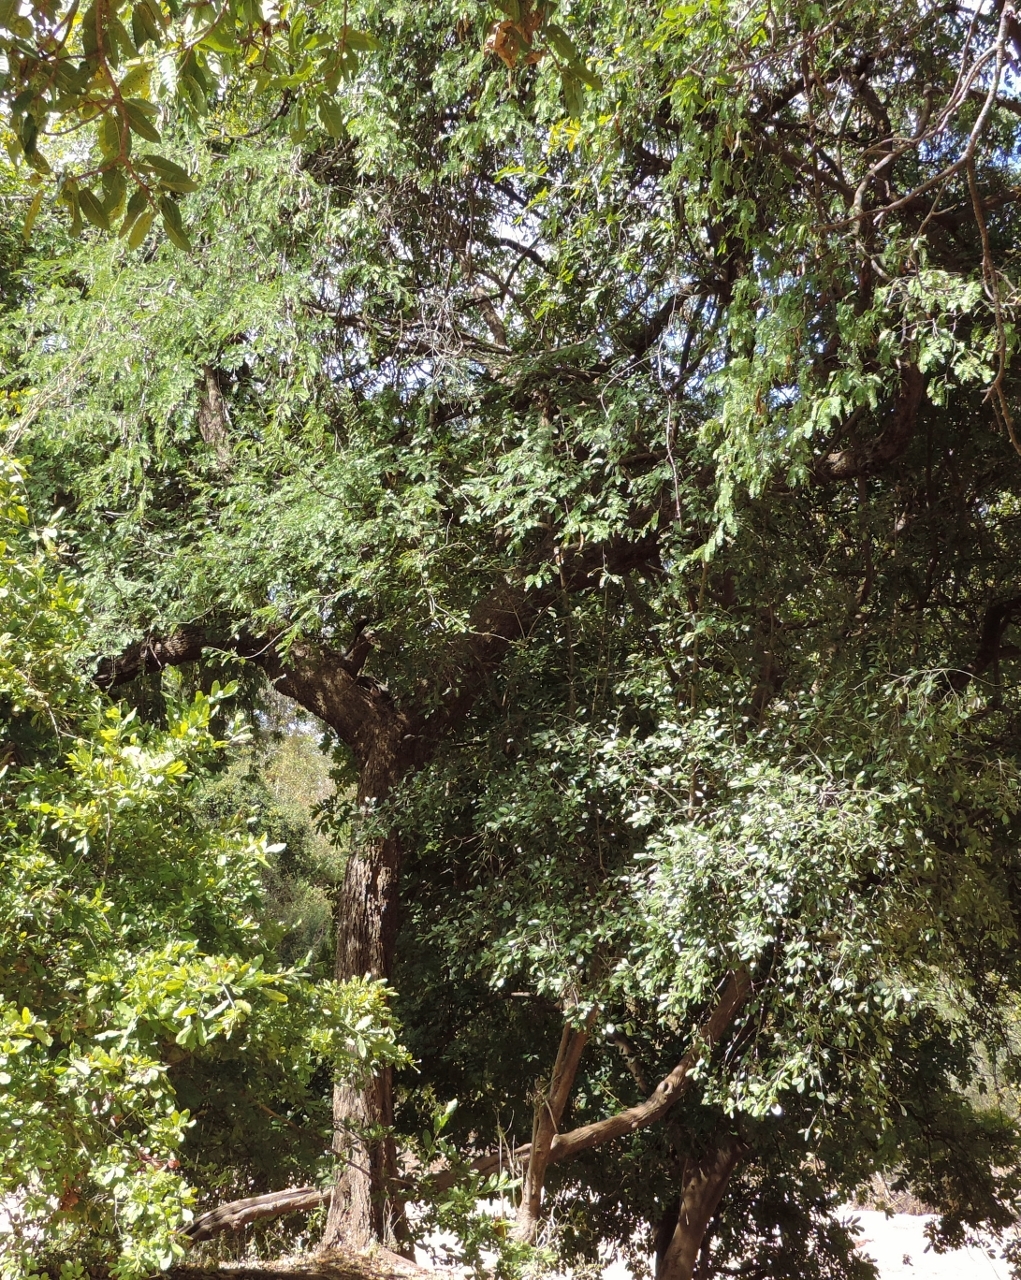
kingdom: Plantae
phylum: Tracheophyta
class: Magnoliopsida
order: Fabales
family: Fabaceae
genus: Tamarindus
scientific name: Tamarindus indica
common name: Tamarind
